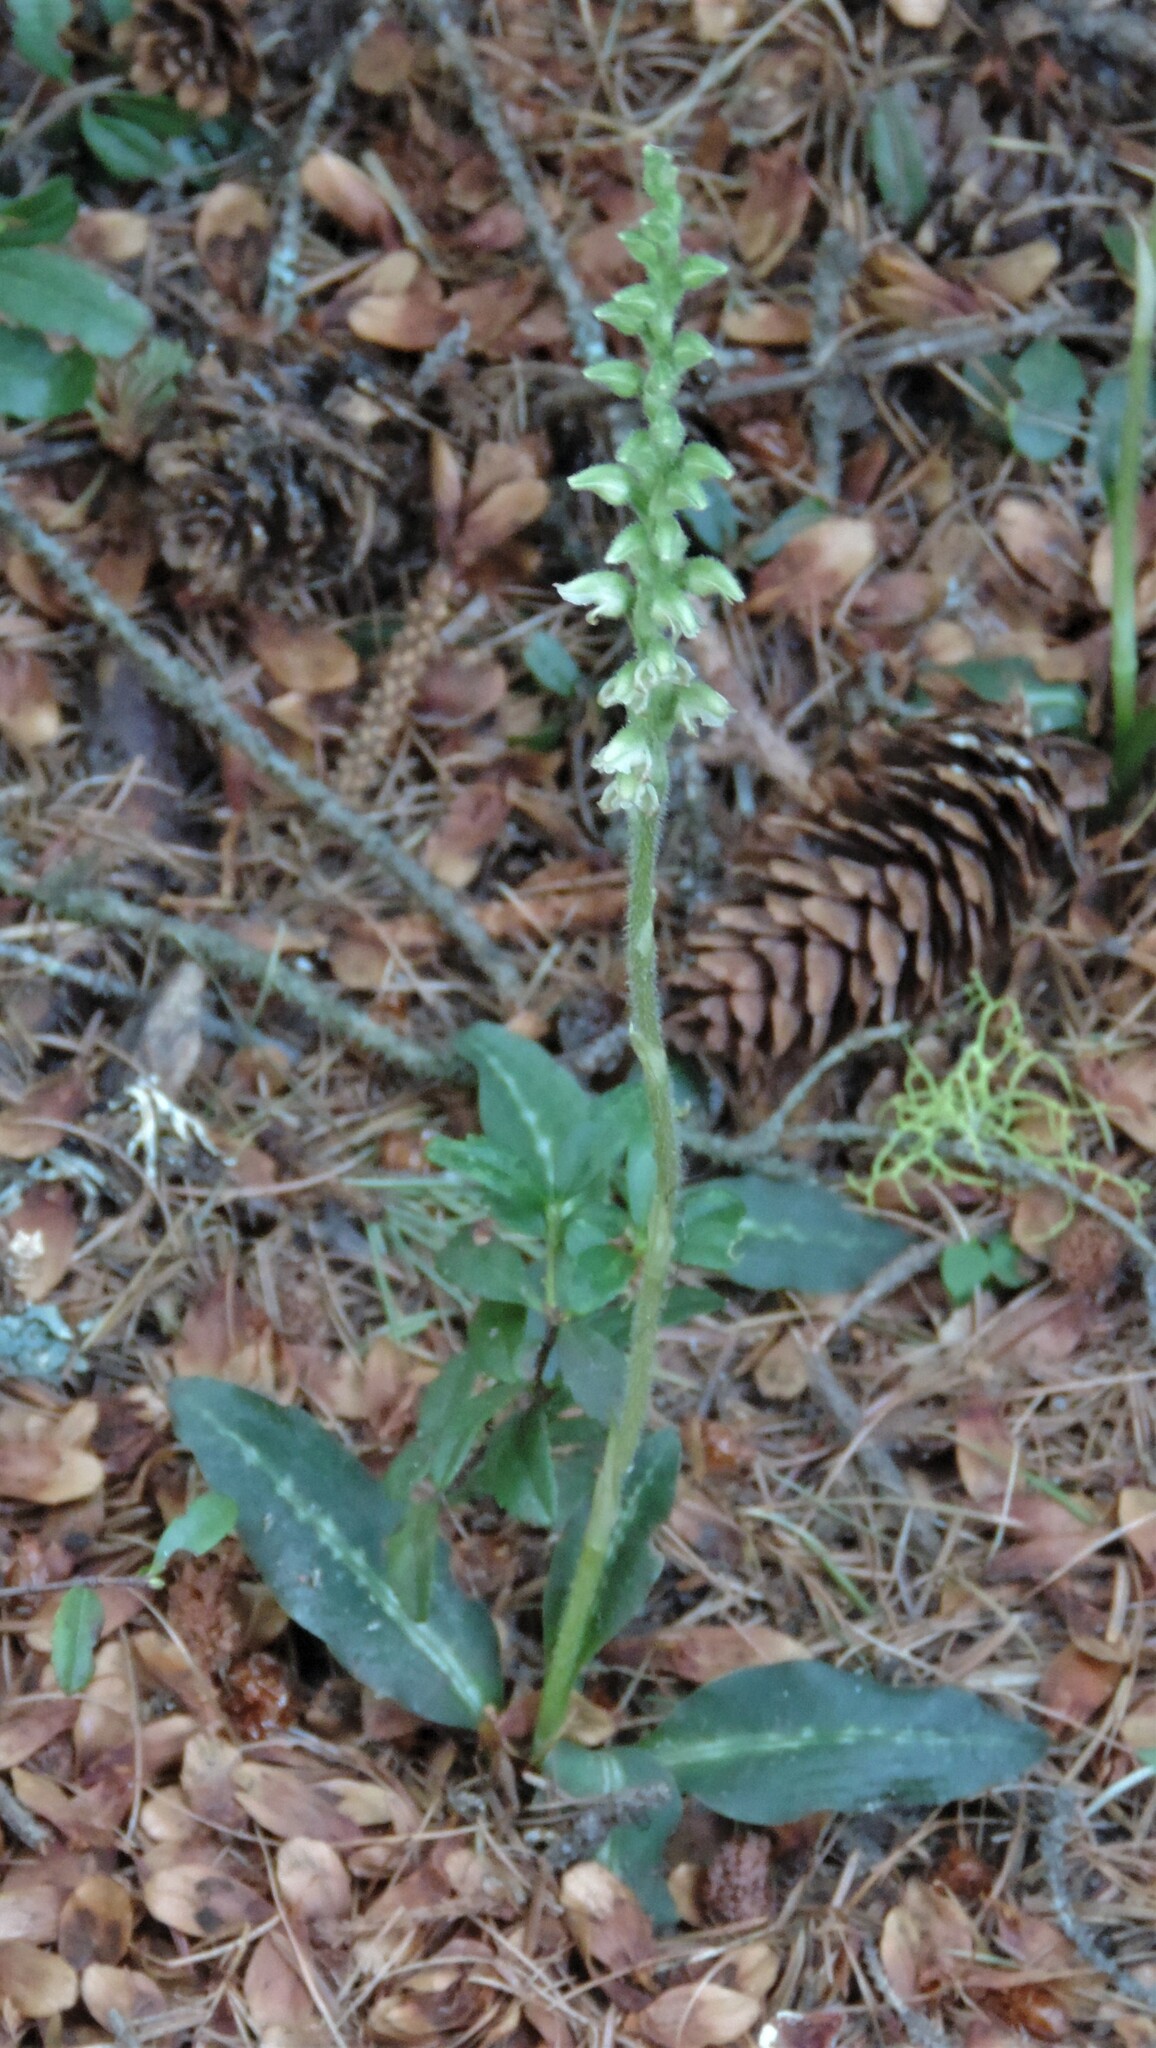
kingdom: Plantae
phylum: Tracheophyta
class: Liliopsida
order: Asparagales
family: Orchidaceae
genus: Goodyera
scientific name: Goodyera oblongifolia
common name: Giant rattlesnake-plantain
